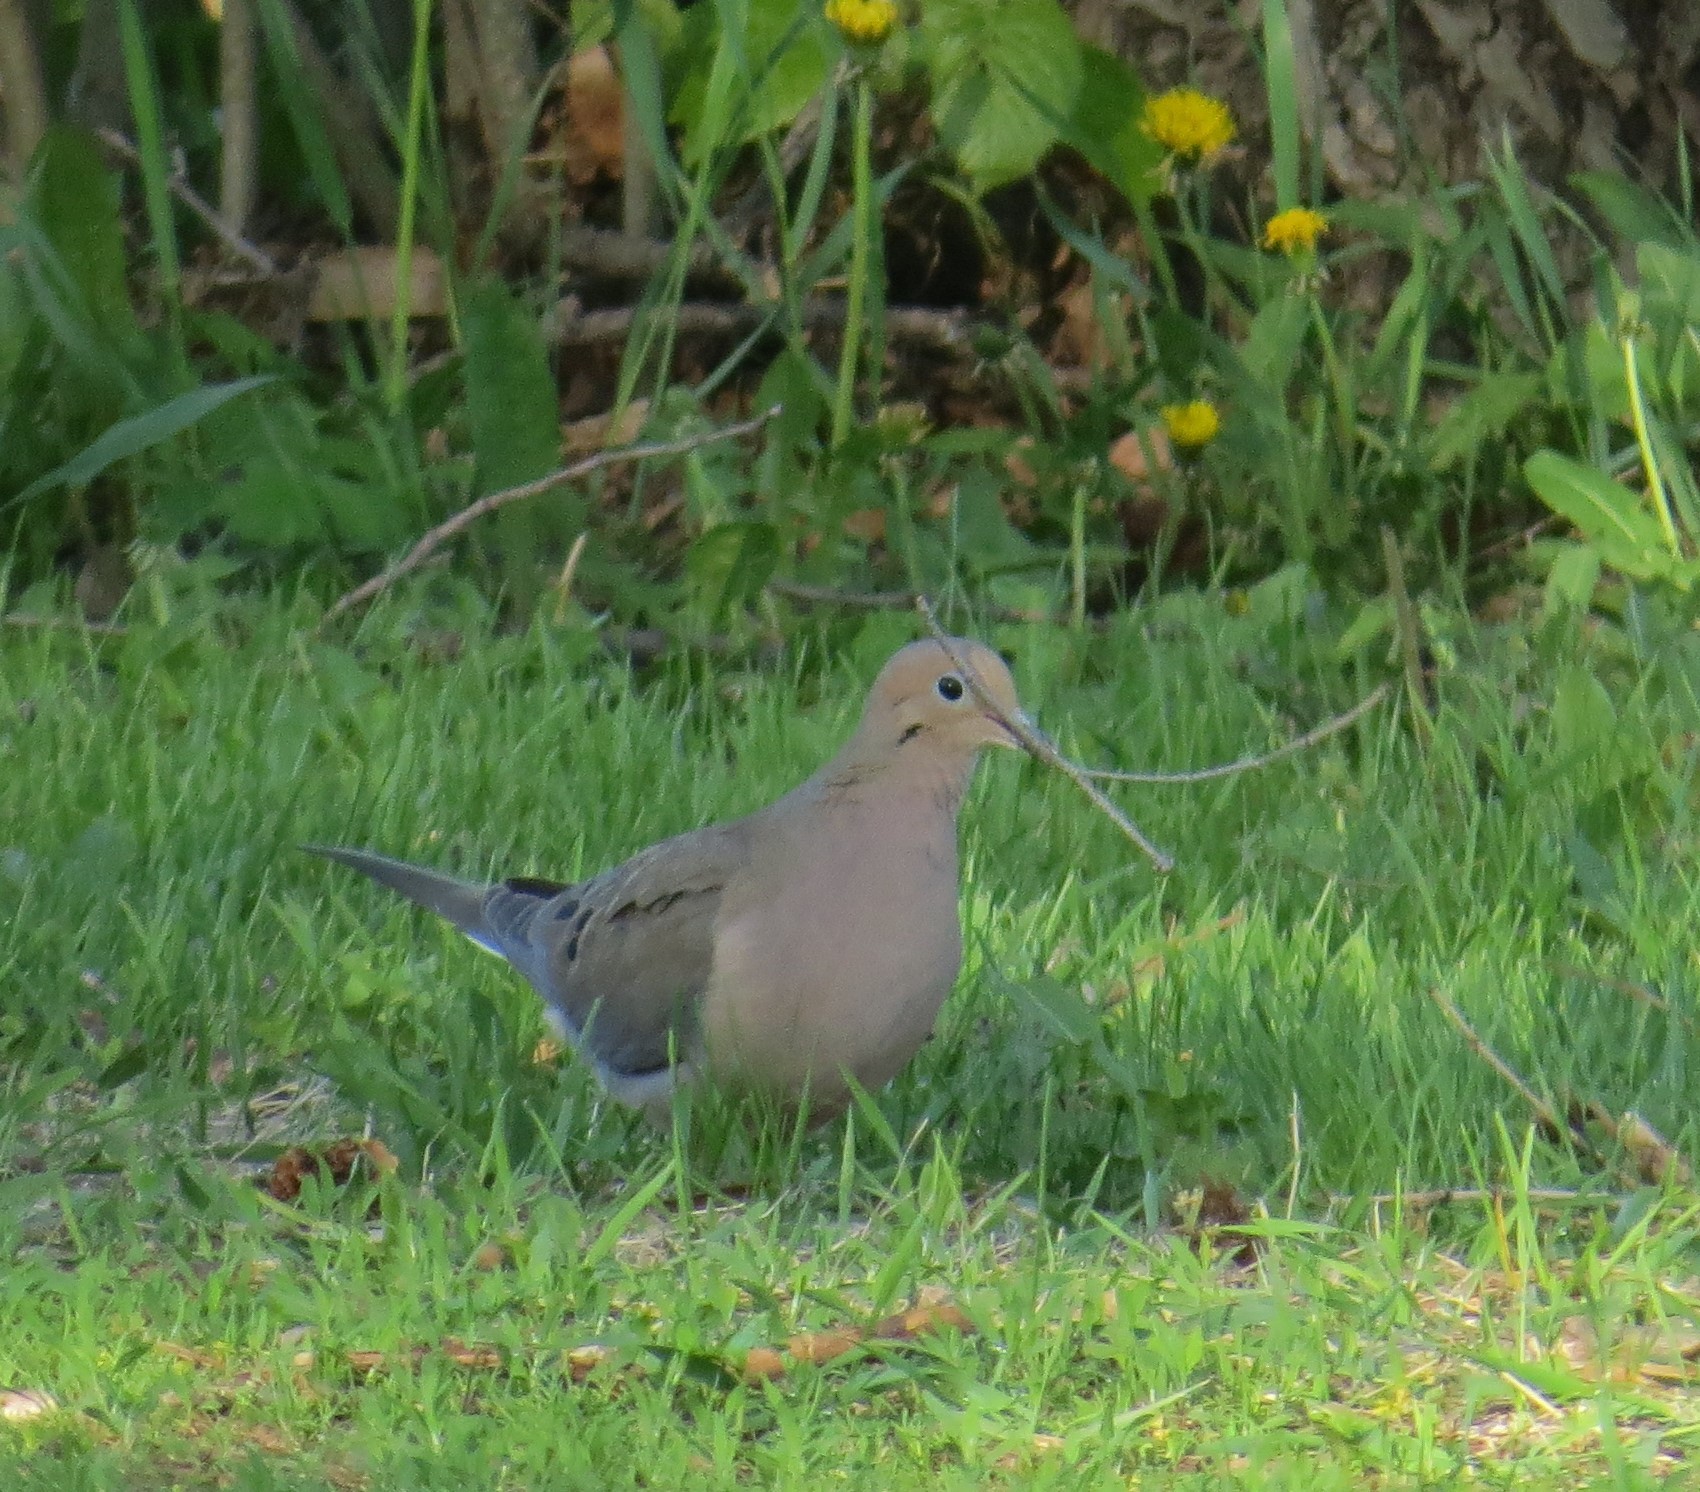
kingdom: Animalia
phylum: Chordata
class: Aves
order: Columbiformes
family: Columbidae
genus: Zenaida
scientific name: Zenaida macroura
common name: Mourning dove
